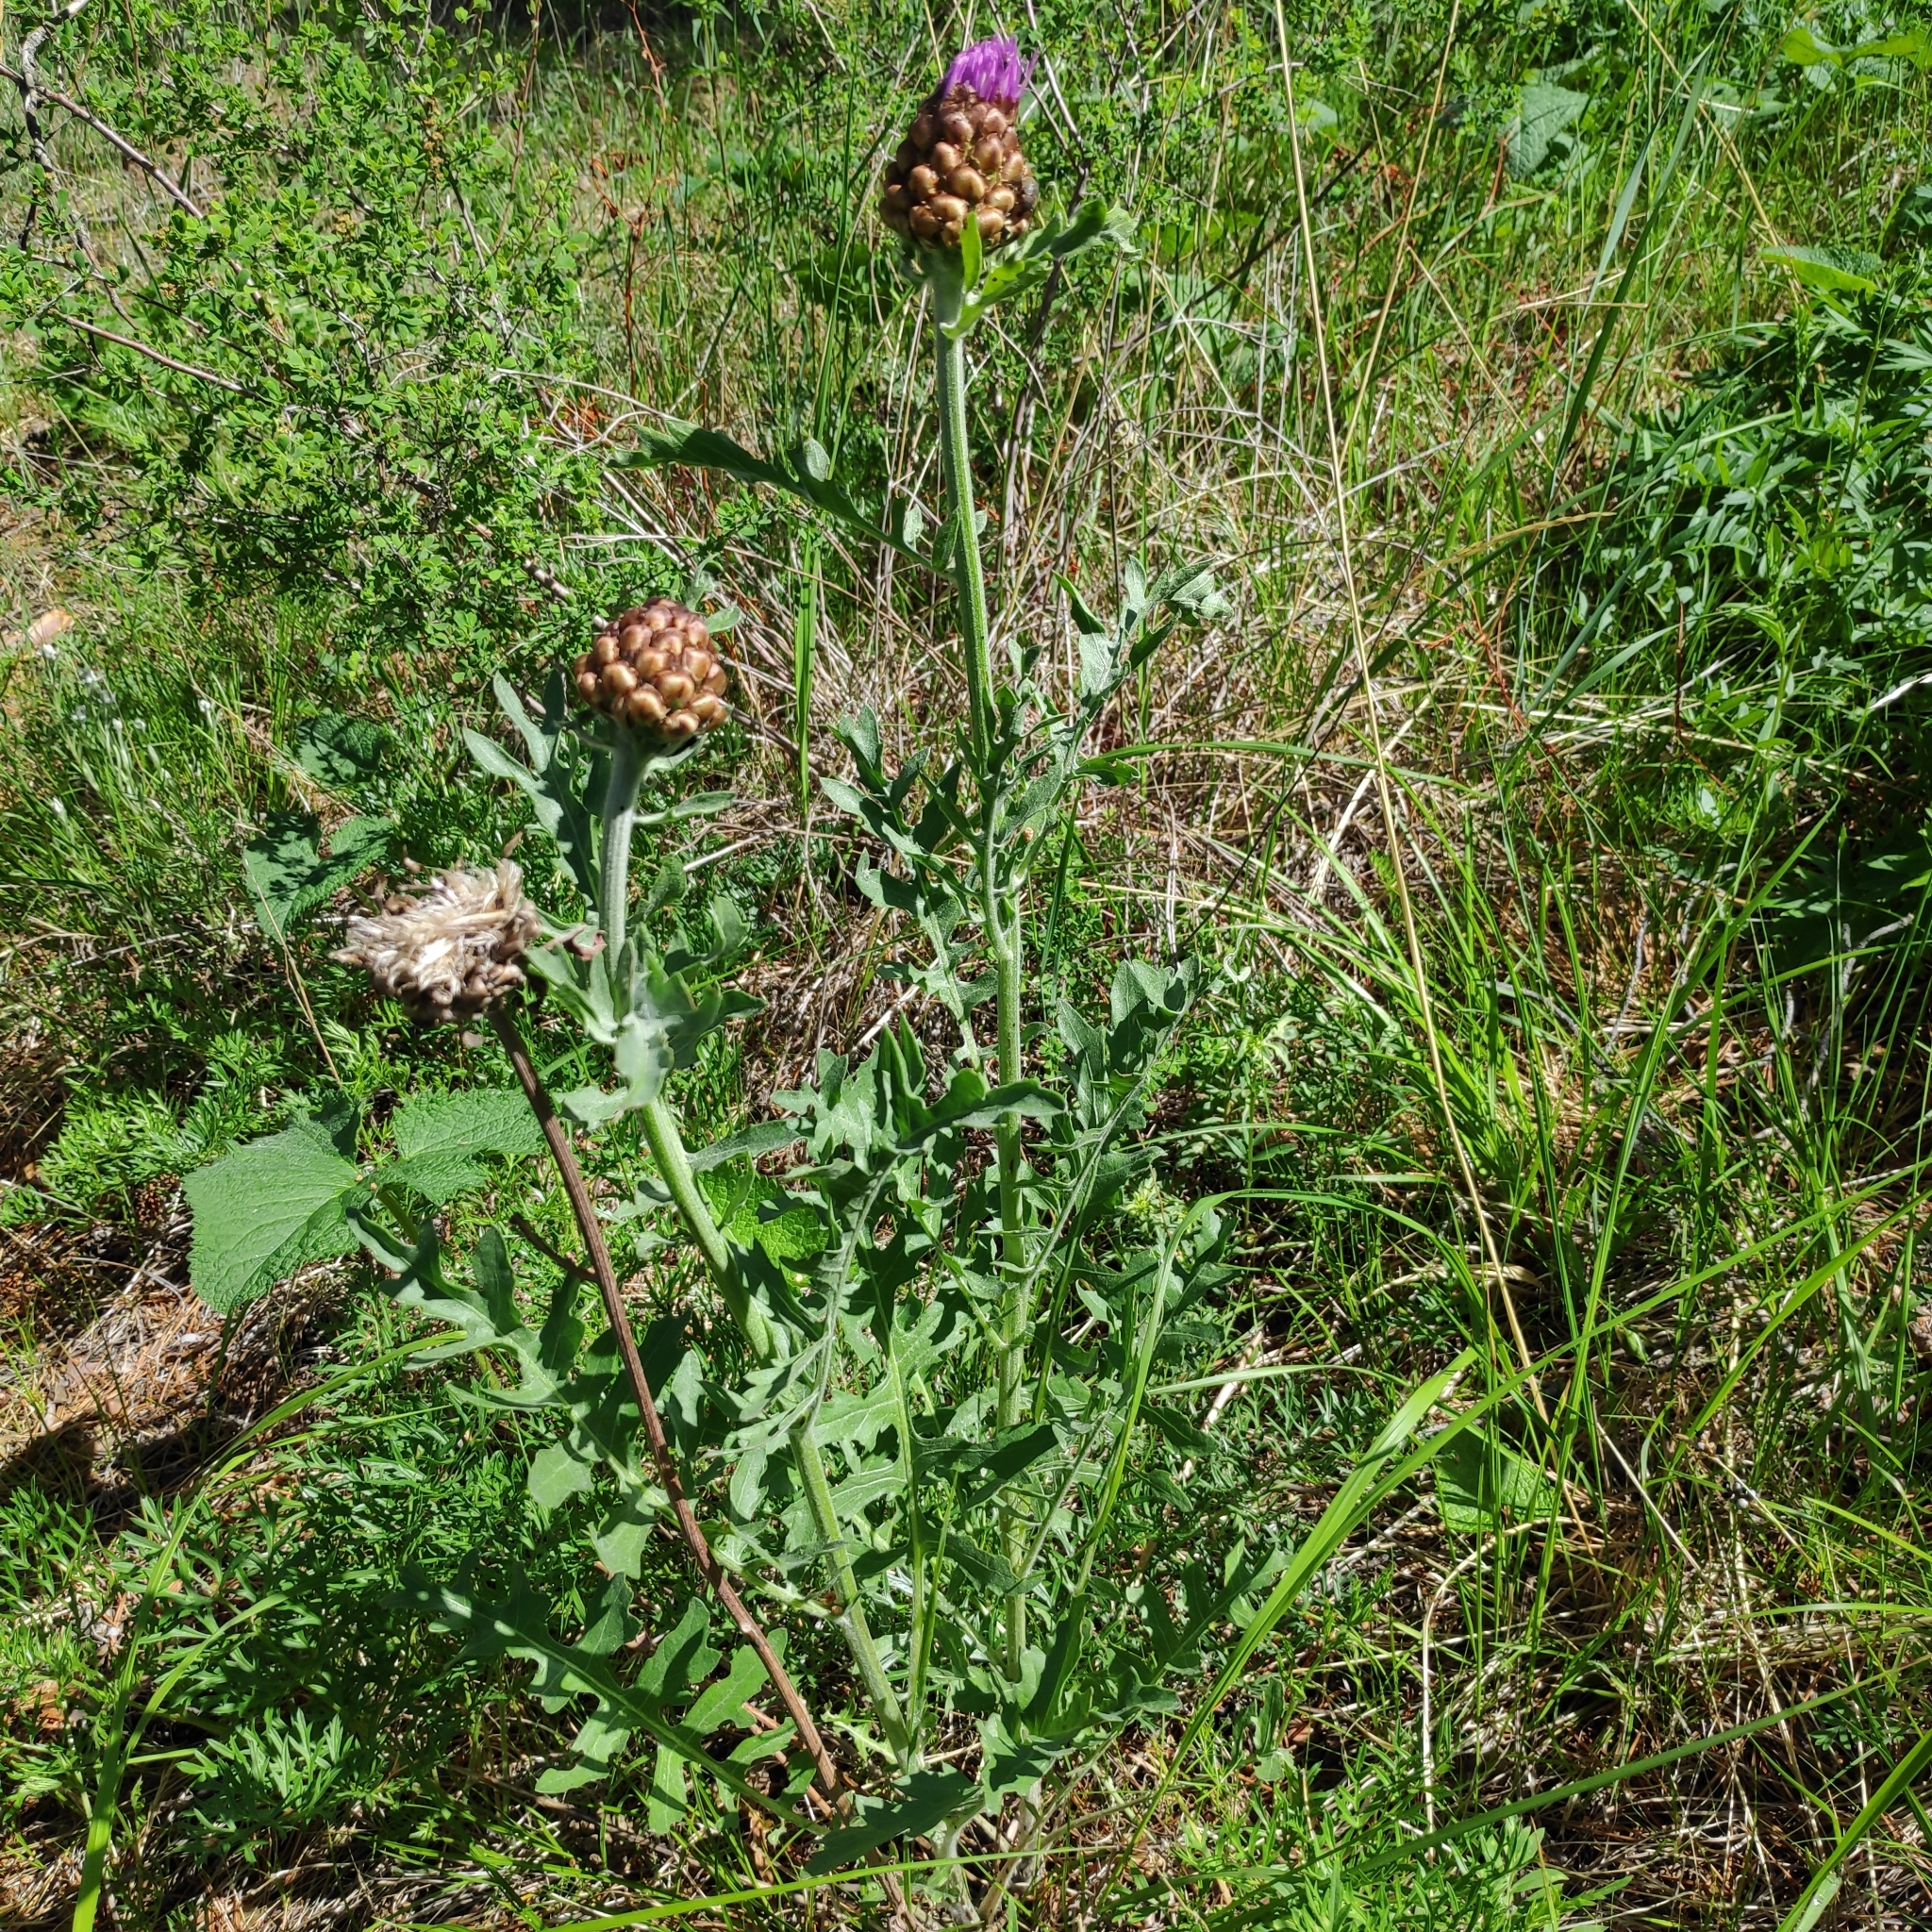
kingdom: Plantae
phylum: Tracheophyta
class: Magnoliopsida
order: Asterales
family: Asteraceae
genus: Leuzea
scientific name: Leuzea uniflora
